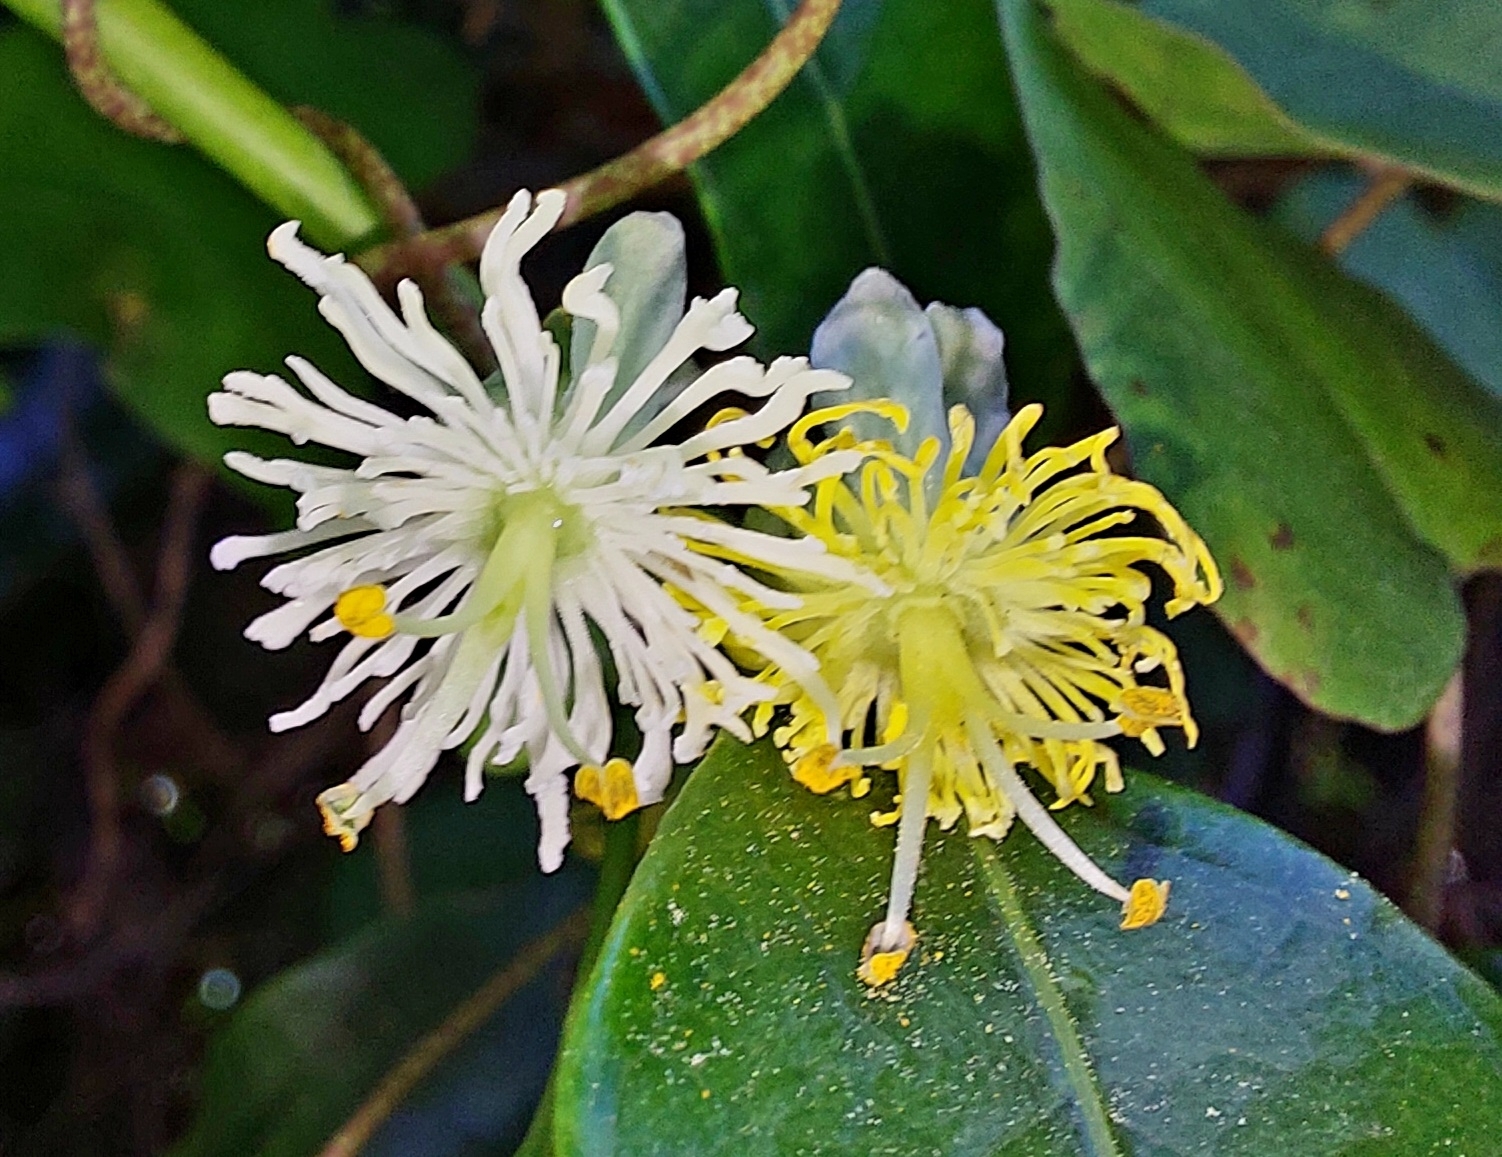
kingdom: Plantae
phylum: Tracheophyta
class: Magnoliopsida
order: Malpighiales
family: Passifloraceae
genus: Passiflora
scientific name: Passiflora tetrandra
